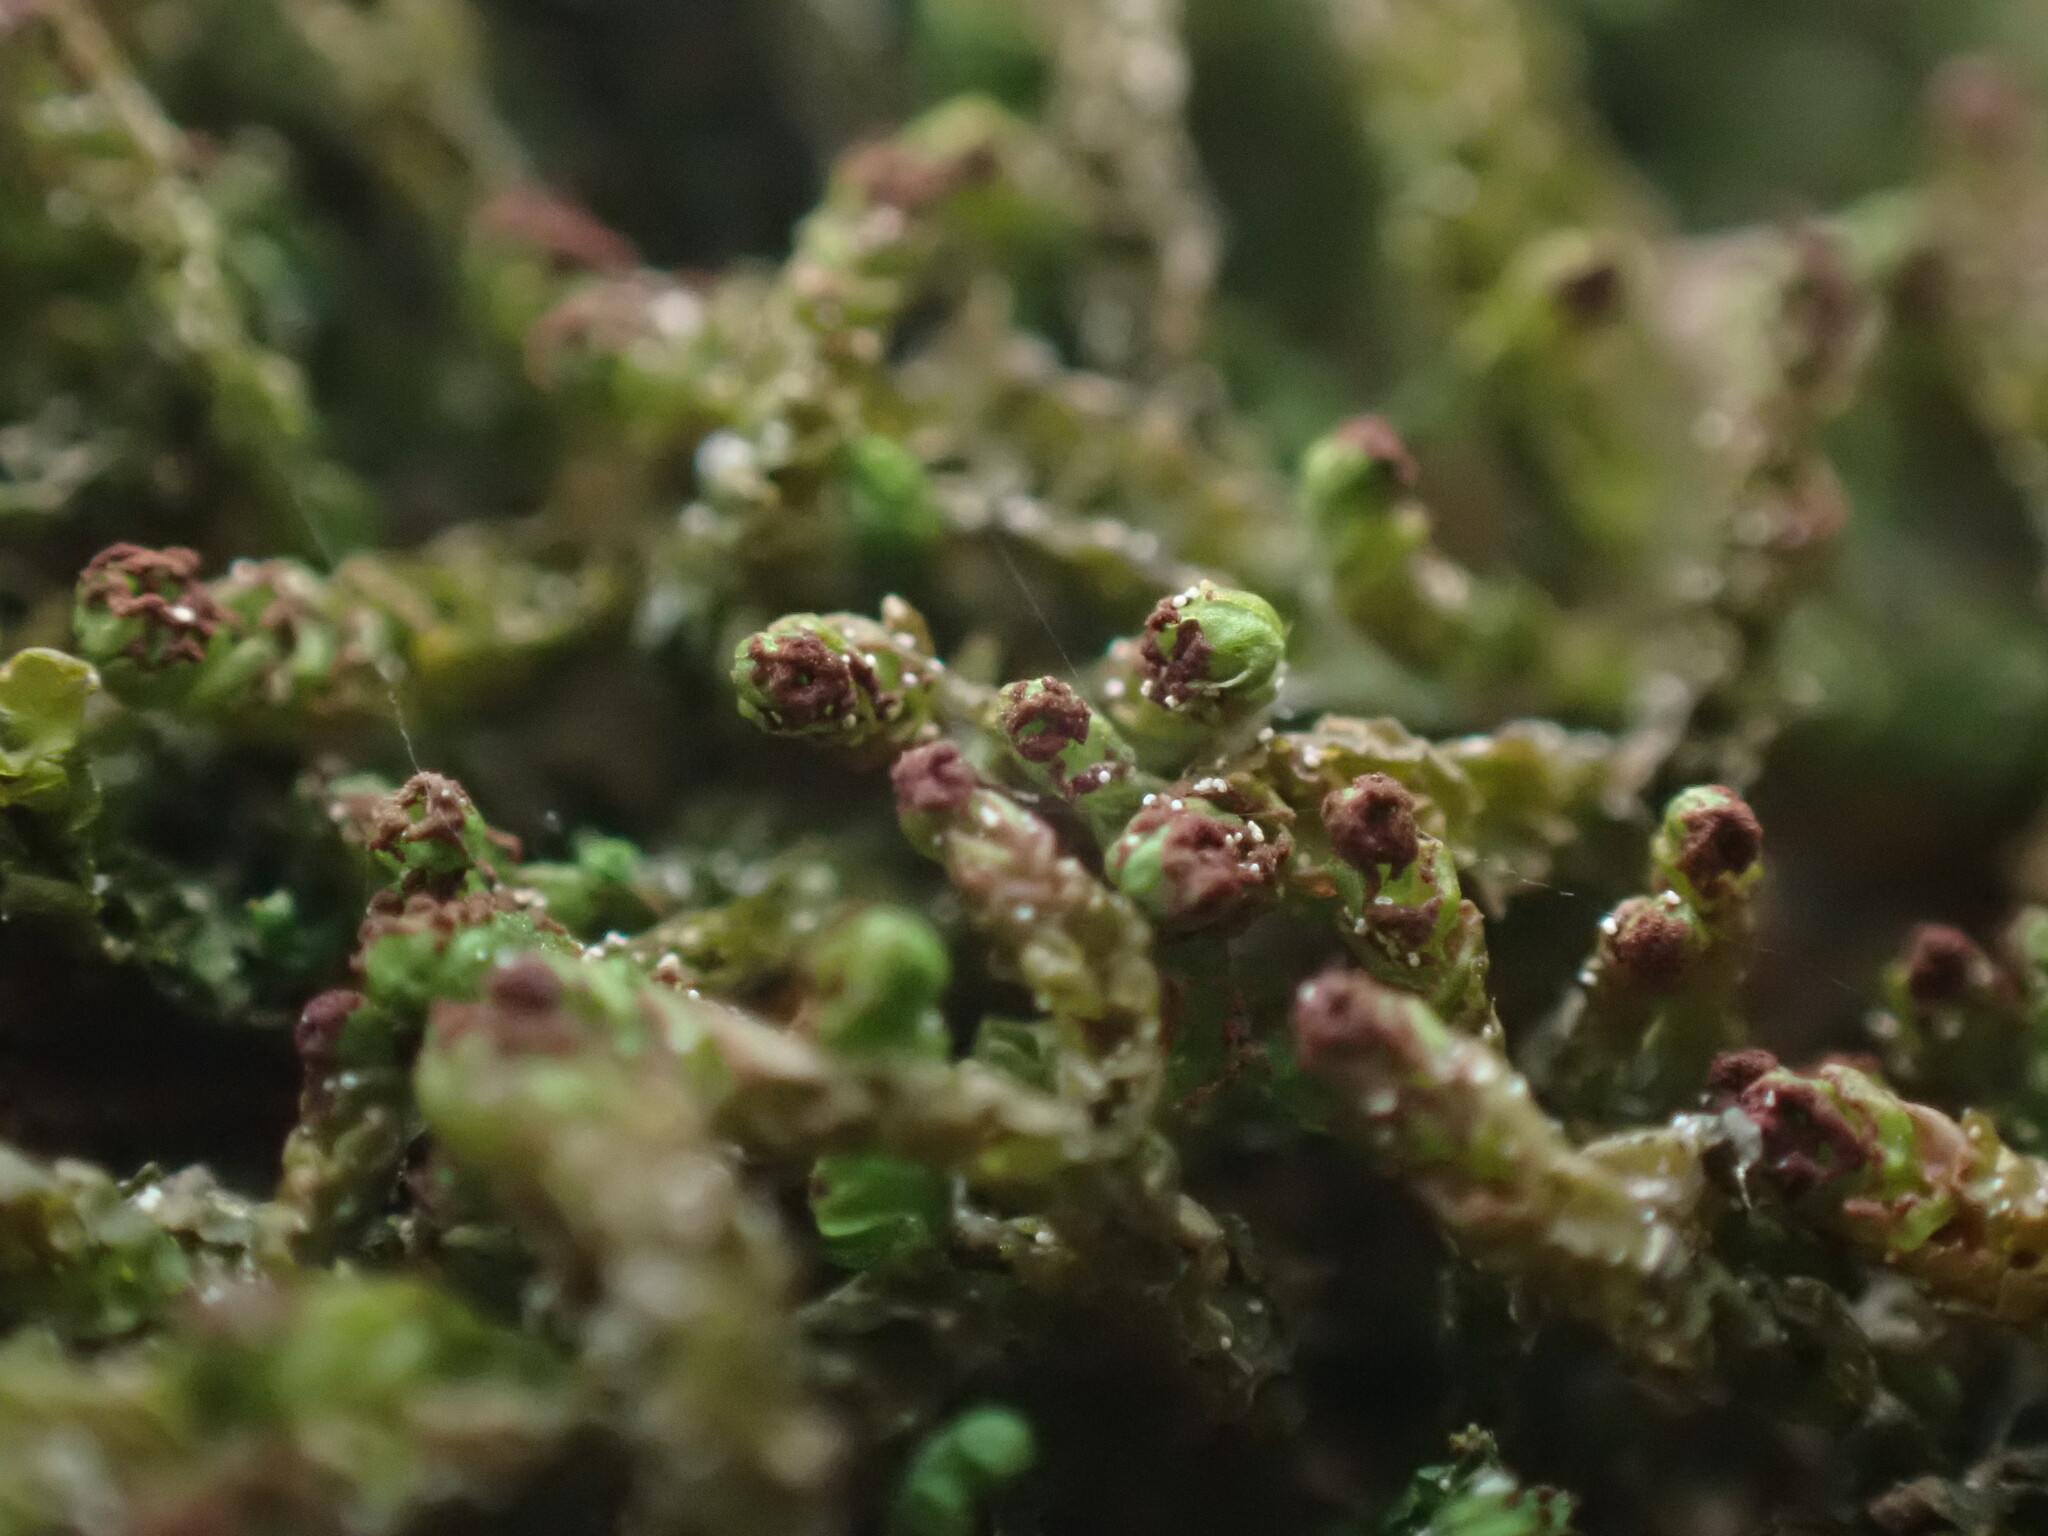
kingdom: Plantae
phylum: Marchantiophyta
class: Jungermanniopsida
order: Jungermanniales
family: Anastrophyllaceae
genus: Barbilophozia
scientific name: Barbilophozia hatcheri
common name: Hatcher s pawwort
